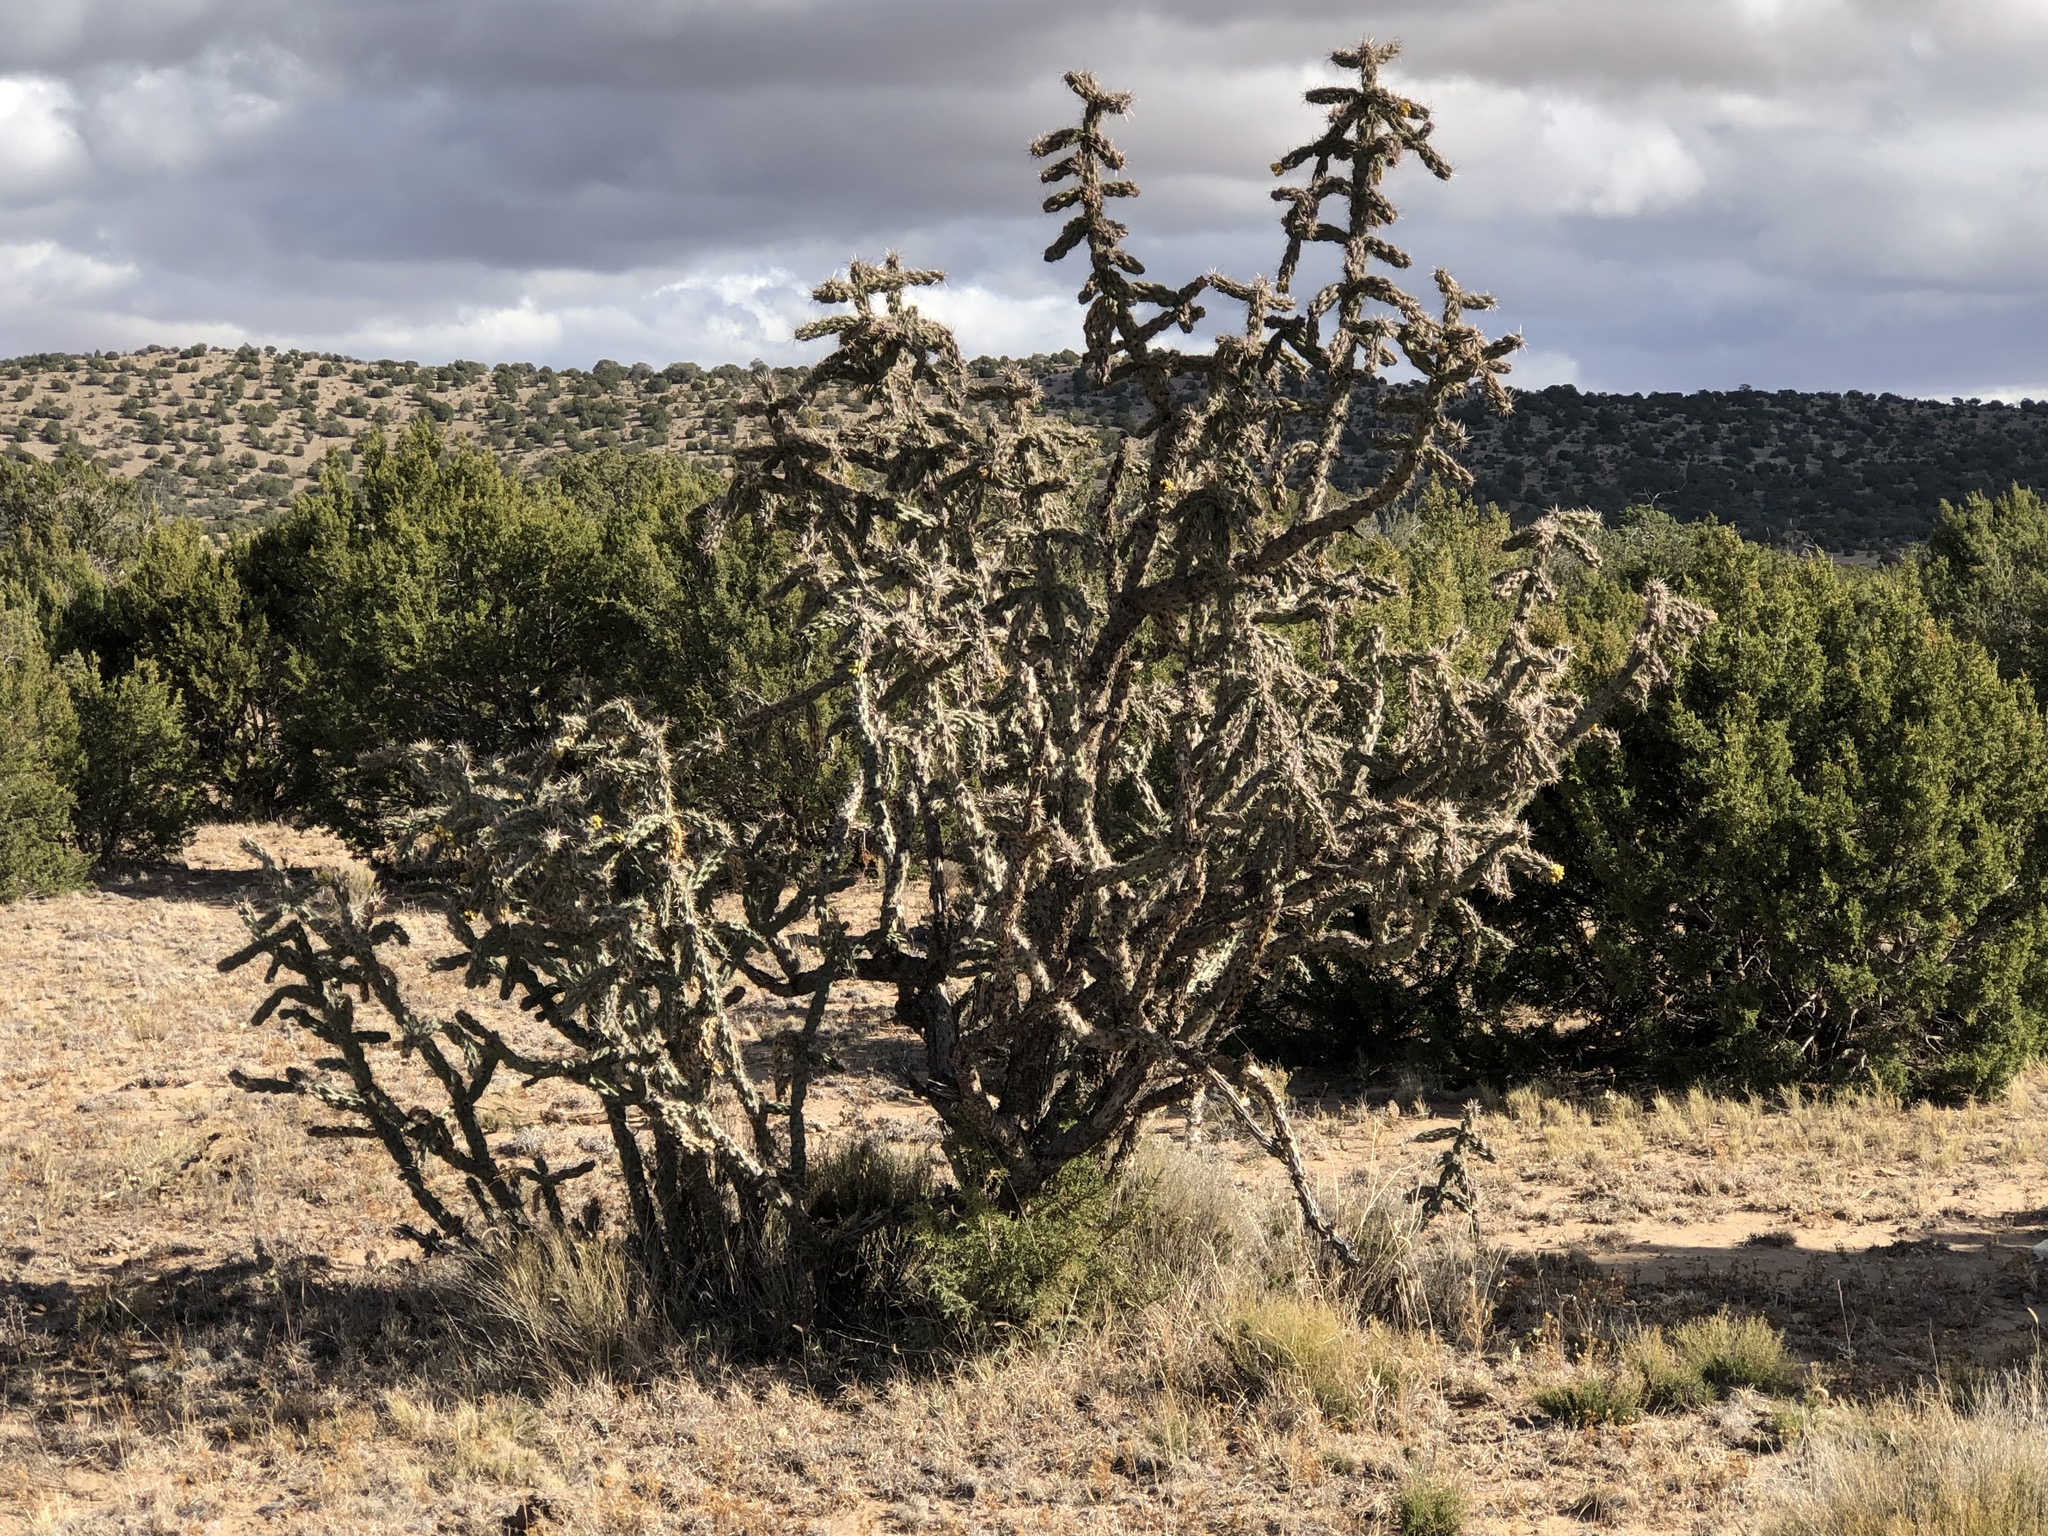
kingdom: Plantae
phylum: Tracheophyta
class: Magnoliopsida
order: Caryophyllales
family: Cactaceae
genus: Cylindropuntia
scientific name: Cylindropuntia imbricata
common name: Candelabrum cactus
